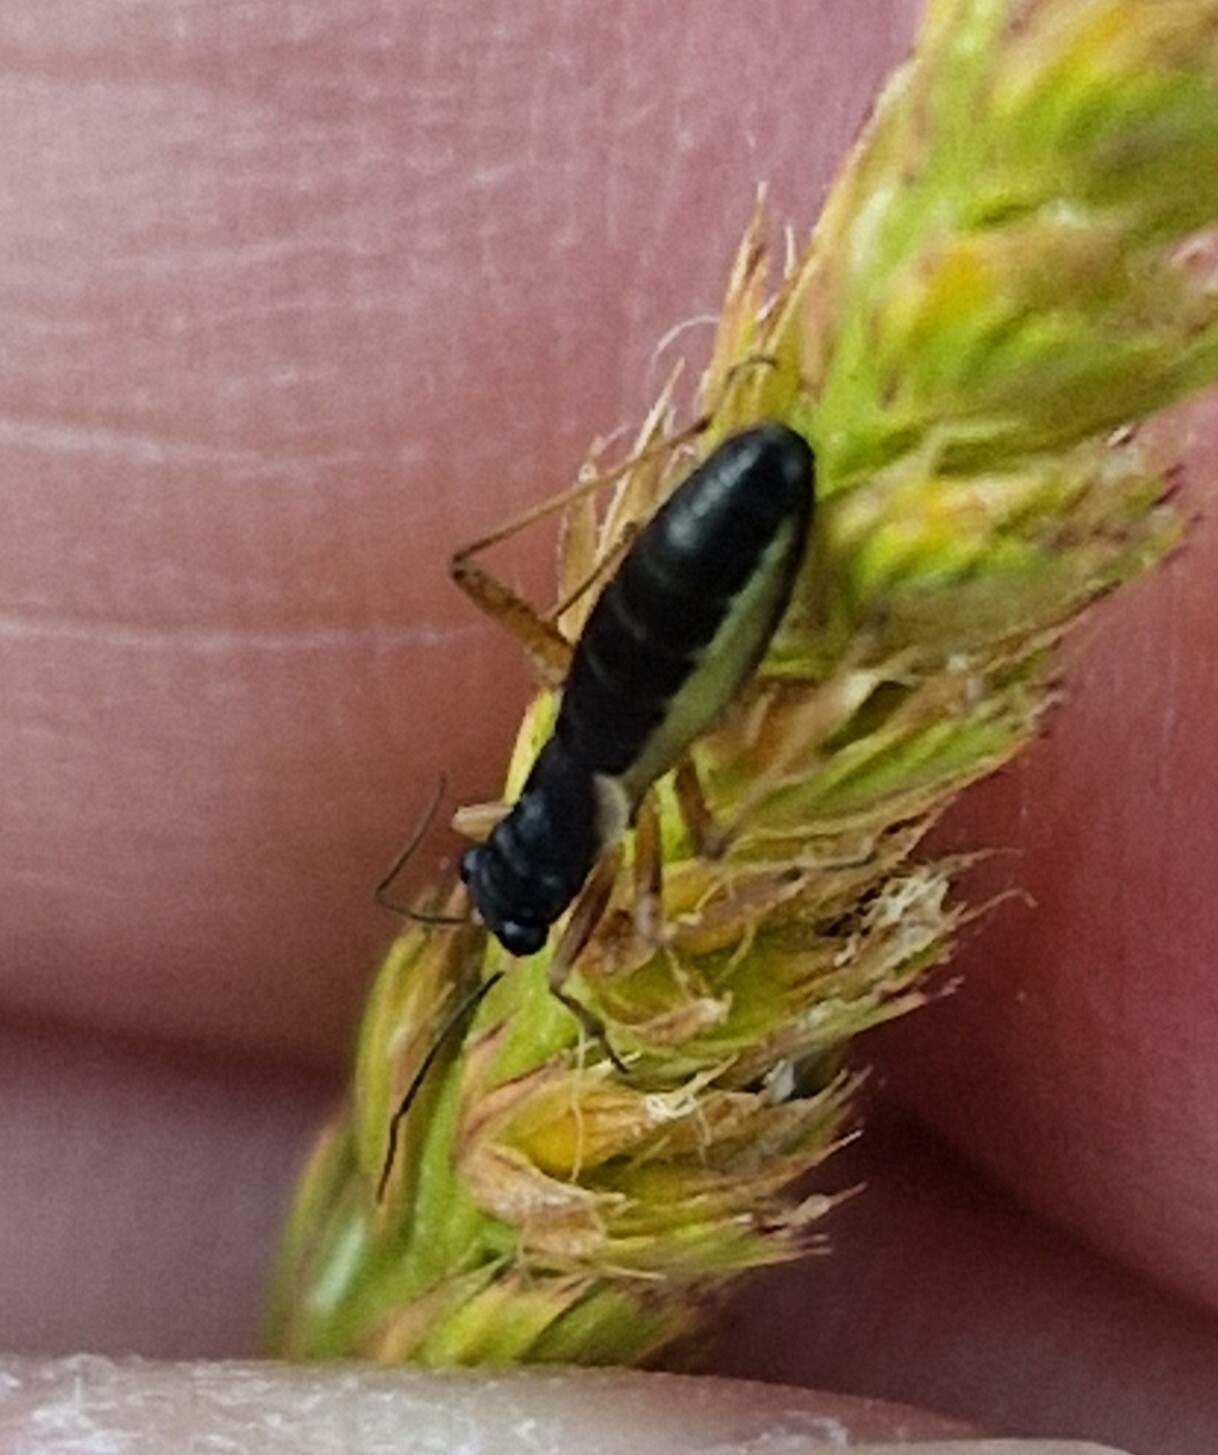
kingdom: Animalia
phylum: Arthropoda
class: Insecta
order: Hemiptera
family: Miridae
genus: Pithanus
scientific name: Pithanus maerkelii
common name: Plant bug
